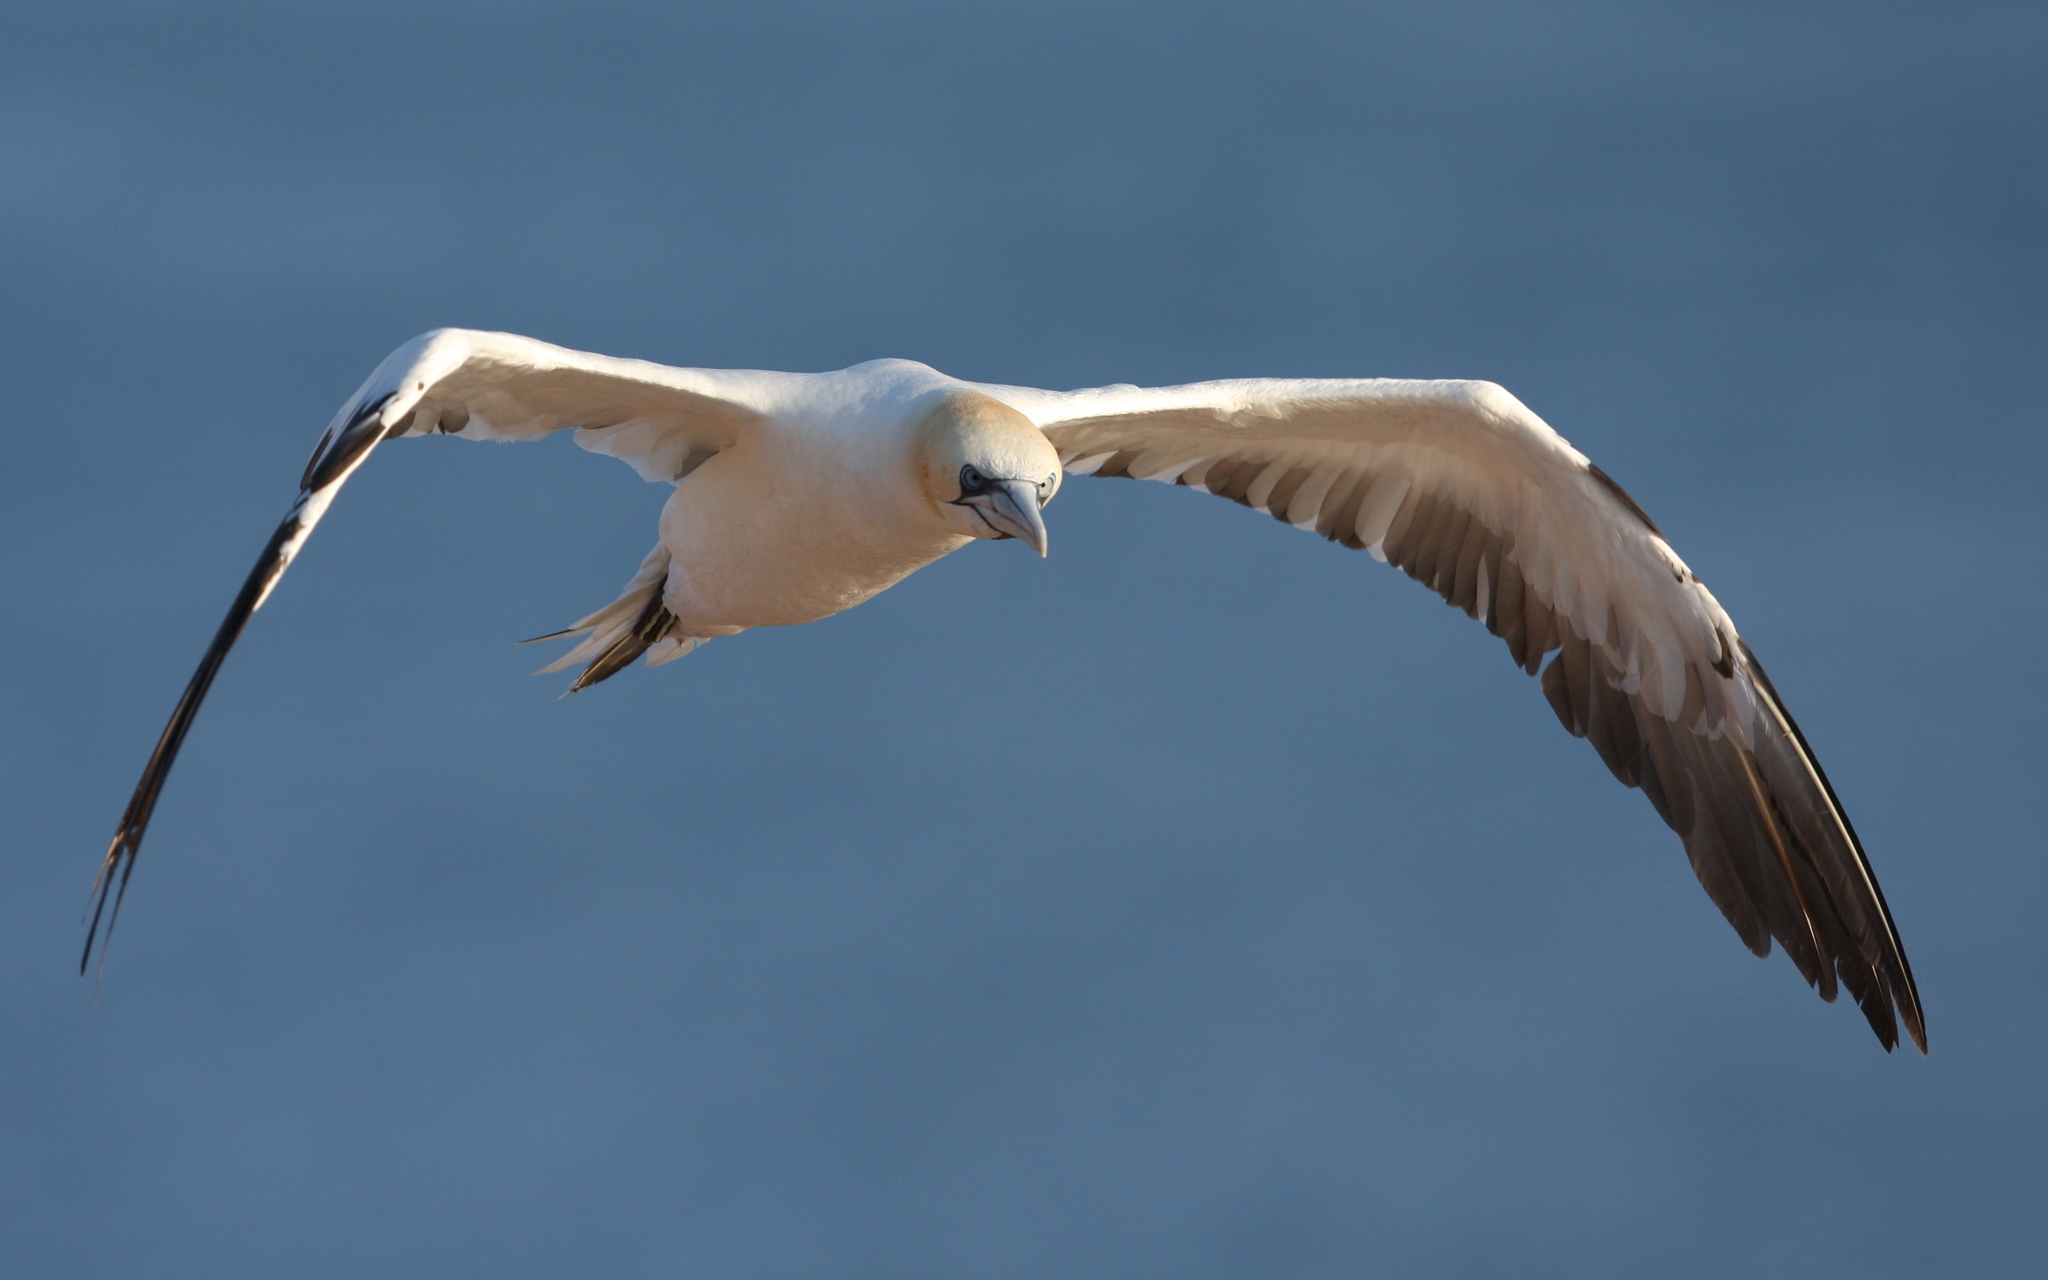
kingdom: Animalia
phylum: Chordata
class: Aves
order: Suliformes
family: Sulidae
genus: Morus
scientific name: Morus bassanus
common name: Northern gannet
